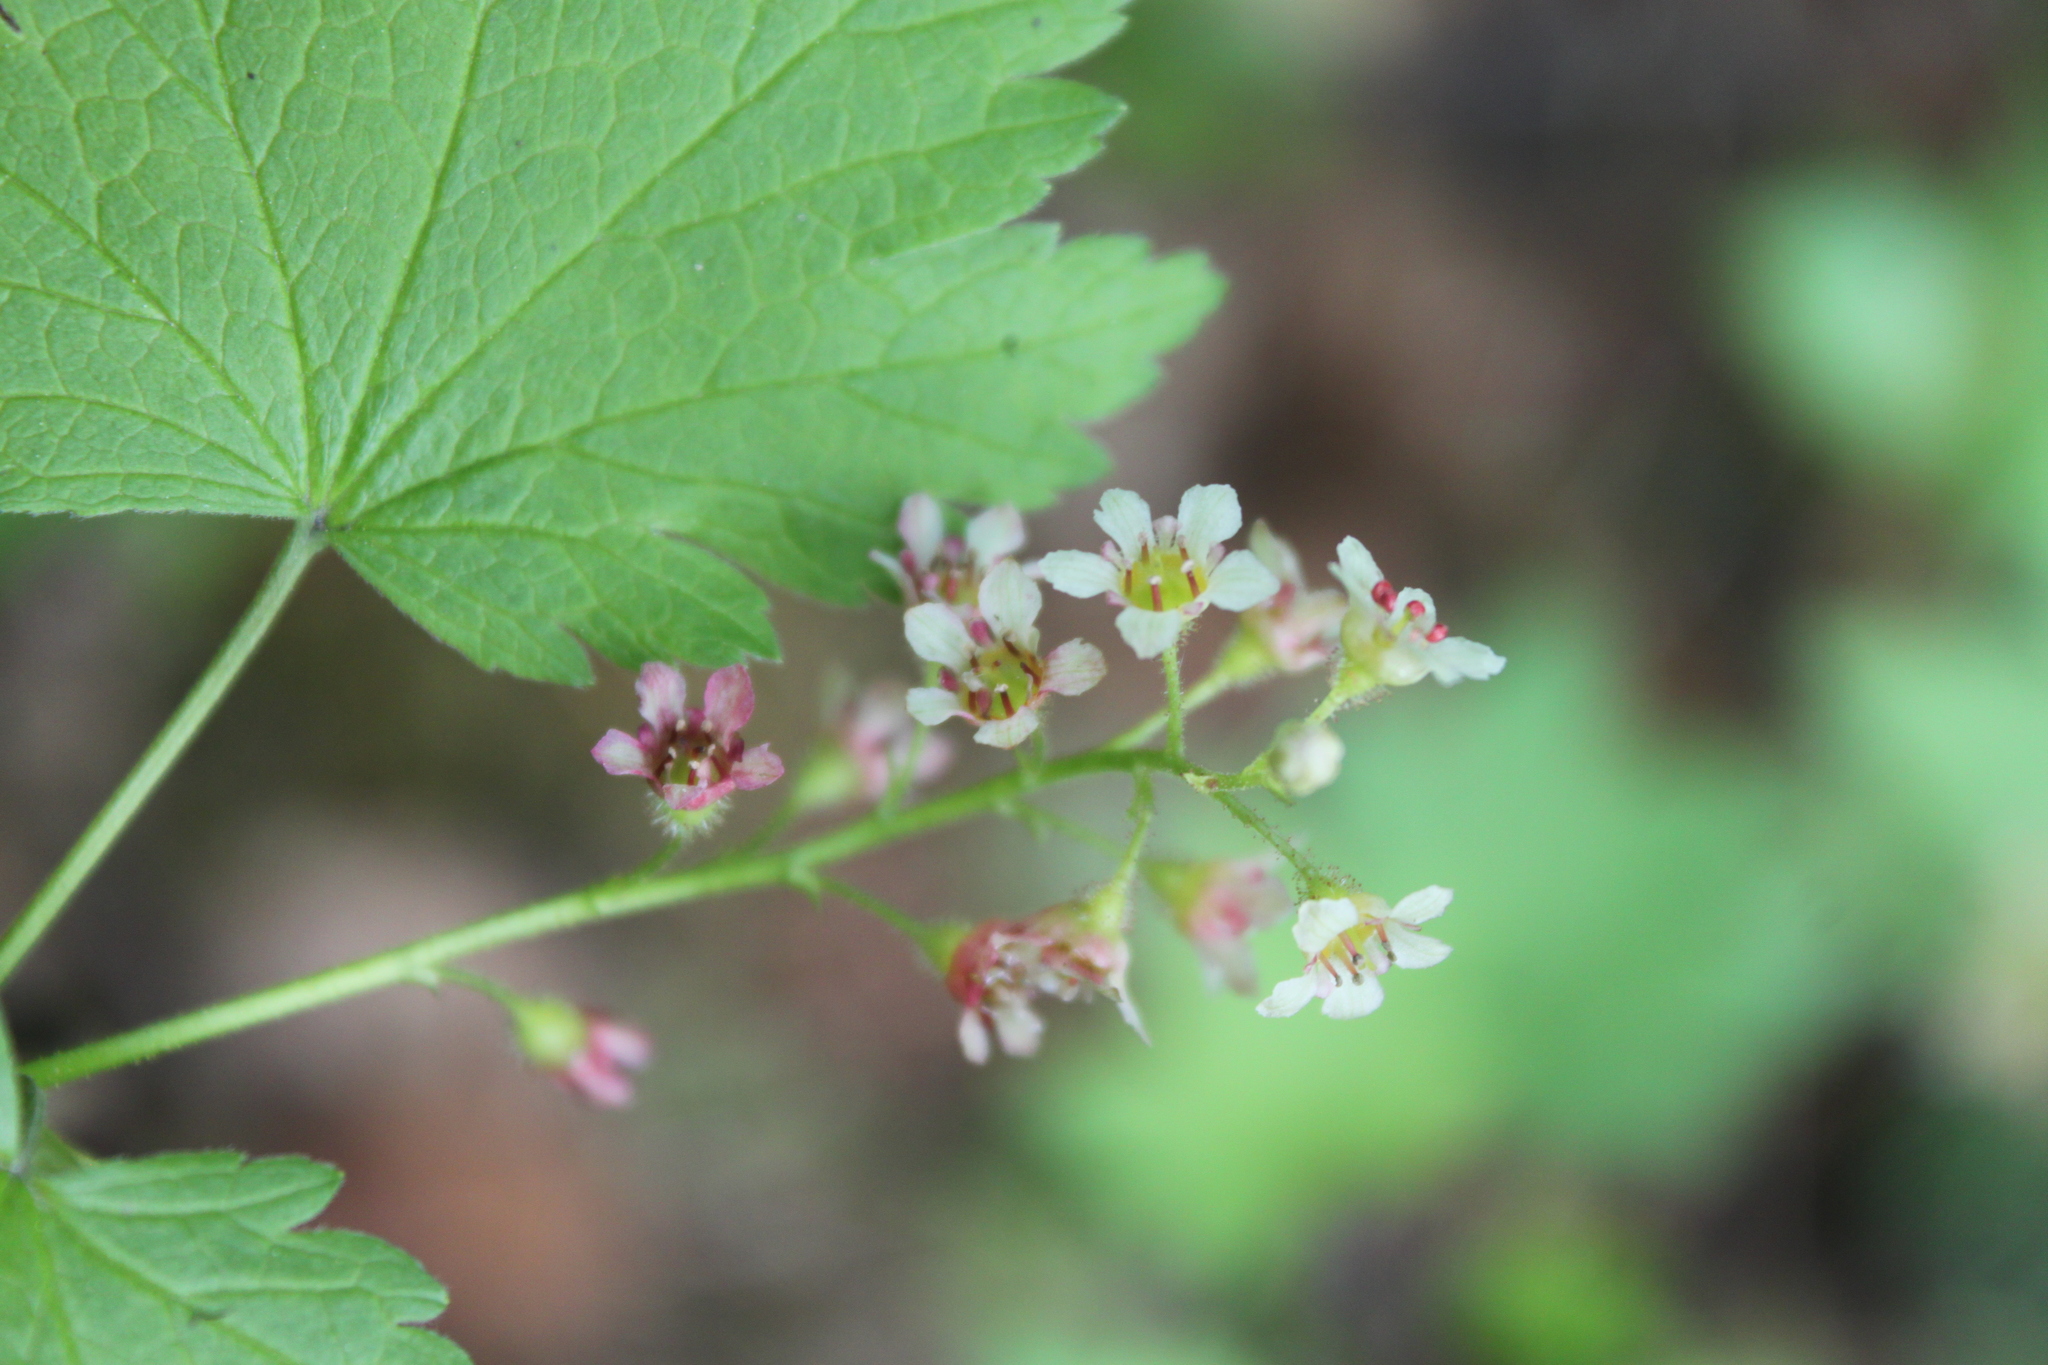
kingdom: Plantae
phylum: Tracheophyta
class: Magnoliopsida
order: Saxifragales
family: Grossulariaceae
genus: Ribes
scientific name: Ribes glandulosum
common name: Skunk currant
